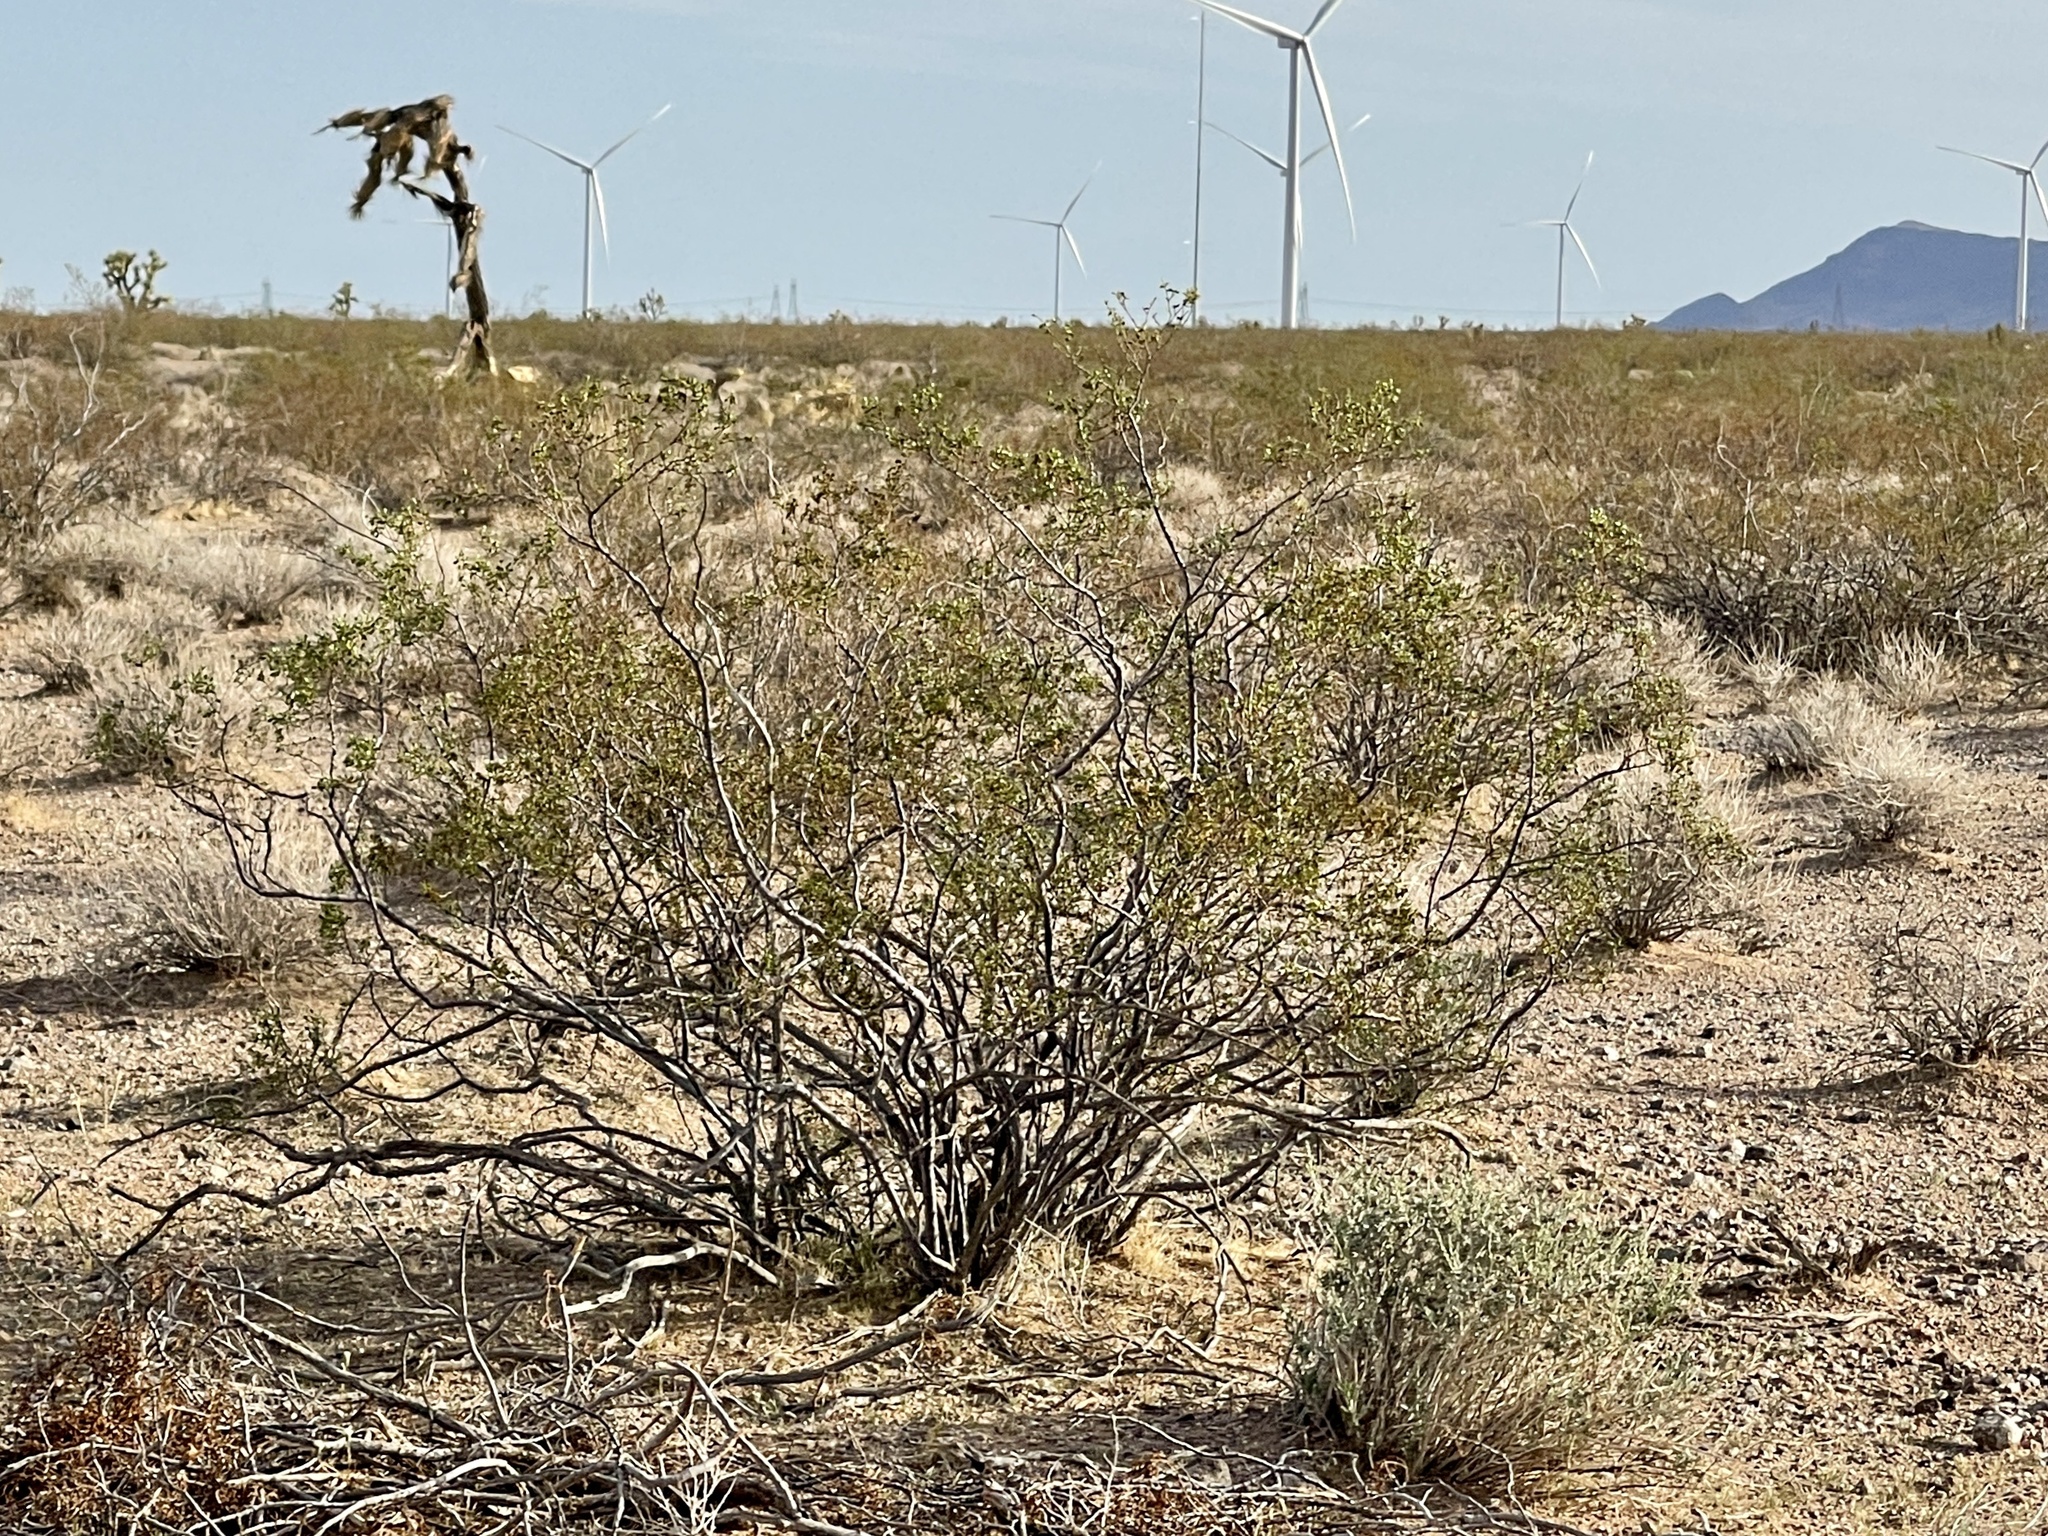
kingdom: Plantae
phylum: Tracheophyta
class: Magnoliopsida
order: Zygophyllales
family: Zygophyllaceae
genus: Larrea
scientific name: Larrea tridentata
